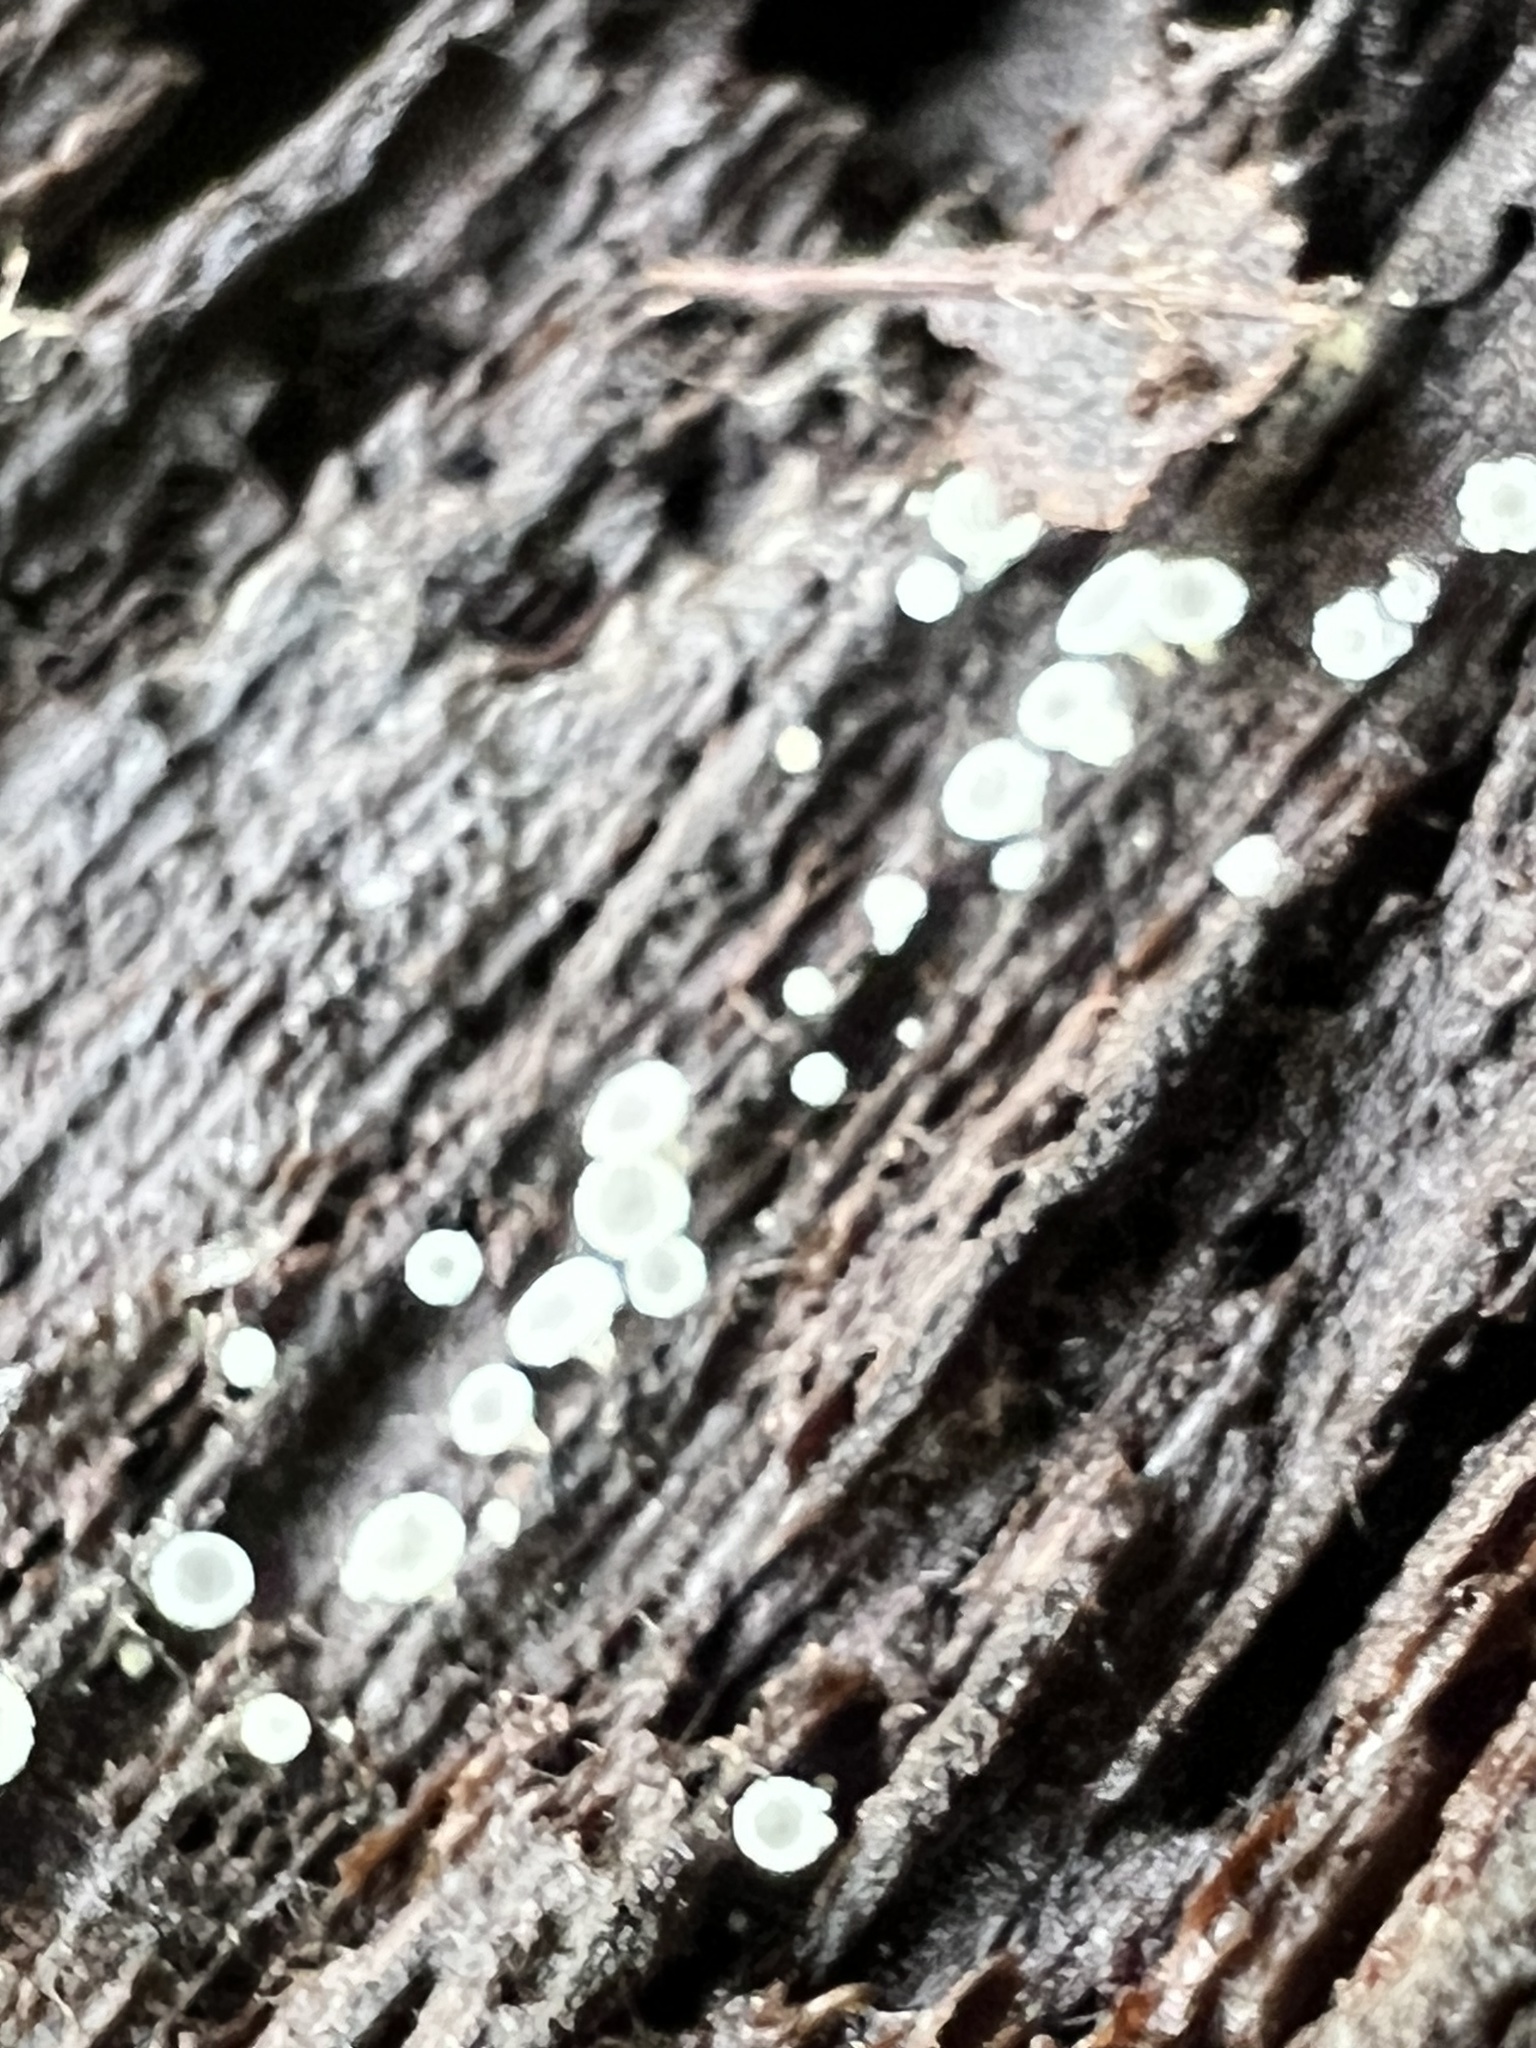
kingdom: Fungi
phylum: Ascomycota
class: Leotiomycetes
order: Helotiales
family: Lachnaceae
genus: Lachnum
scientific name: Lachnum virgineum
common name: Snowy disco
